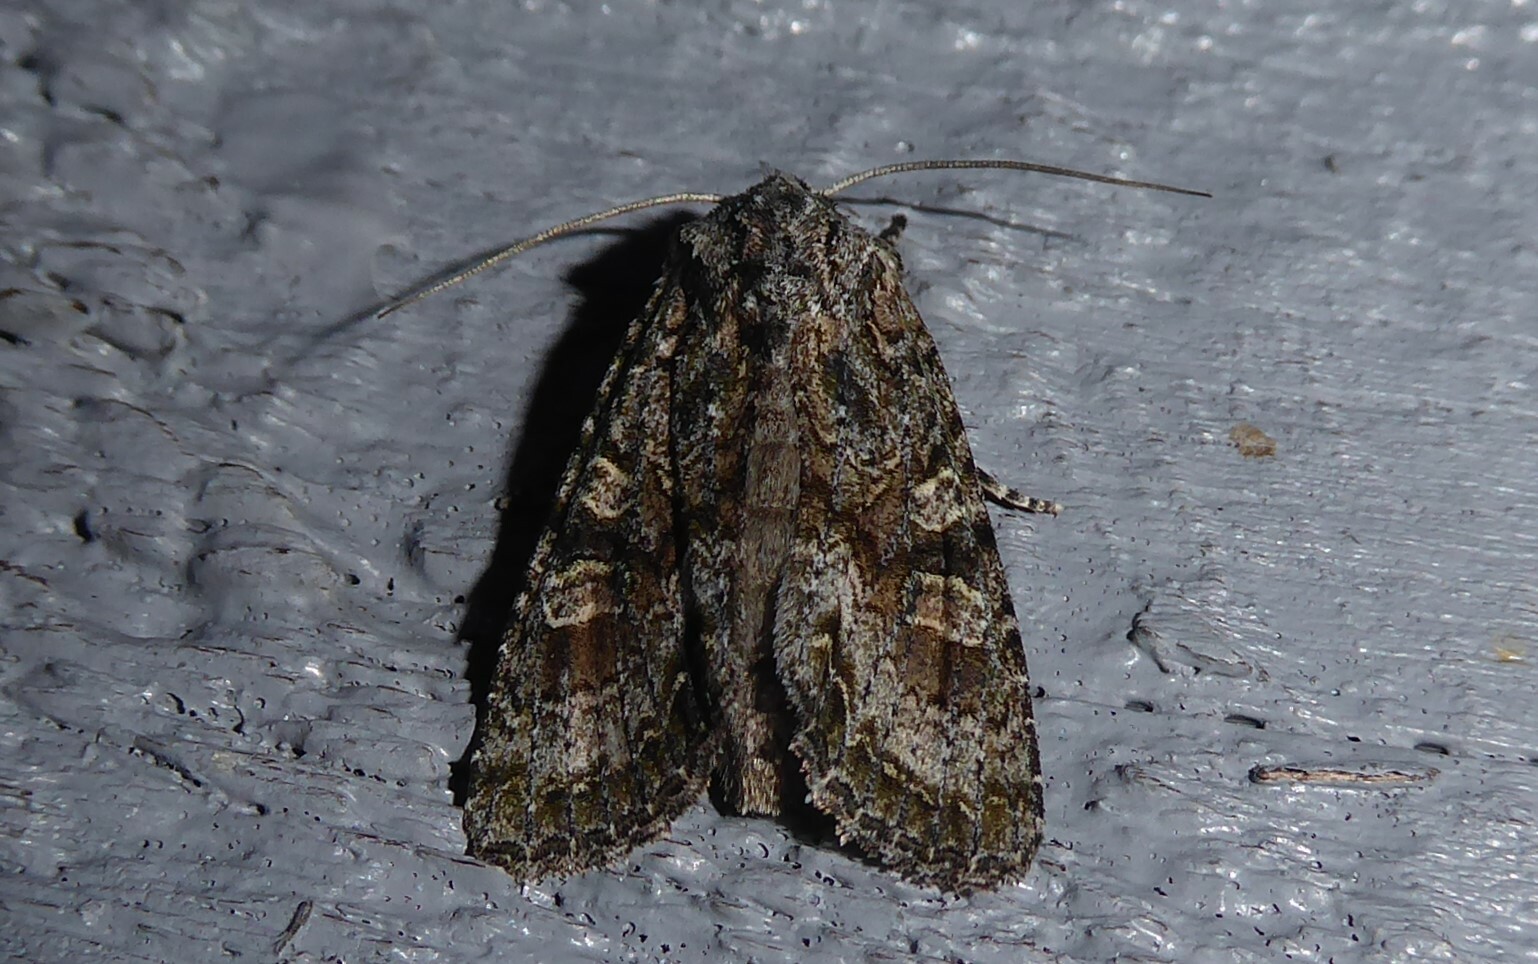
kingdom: Animalia
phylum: Arthropoda
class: Insecta
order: Lepidoptera
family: Noctuidae
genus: Ichneutica
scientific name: Ichneutica mutans
